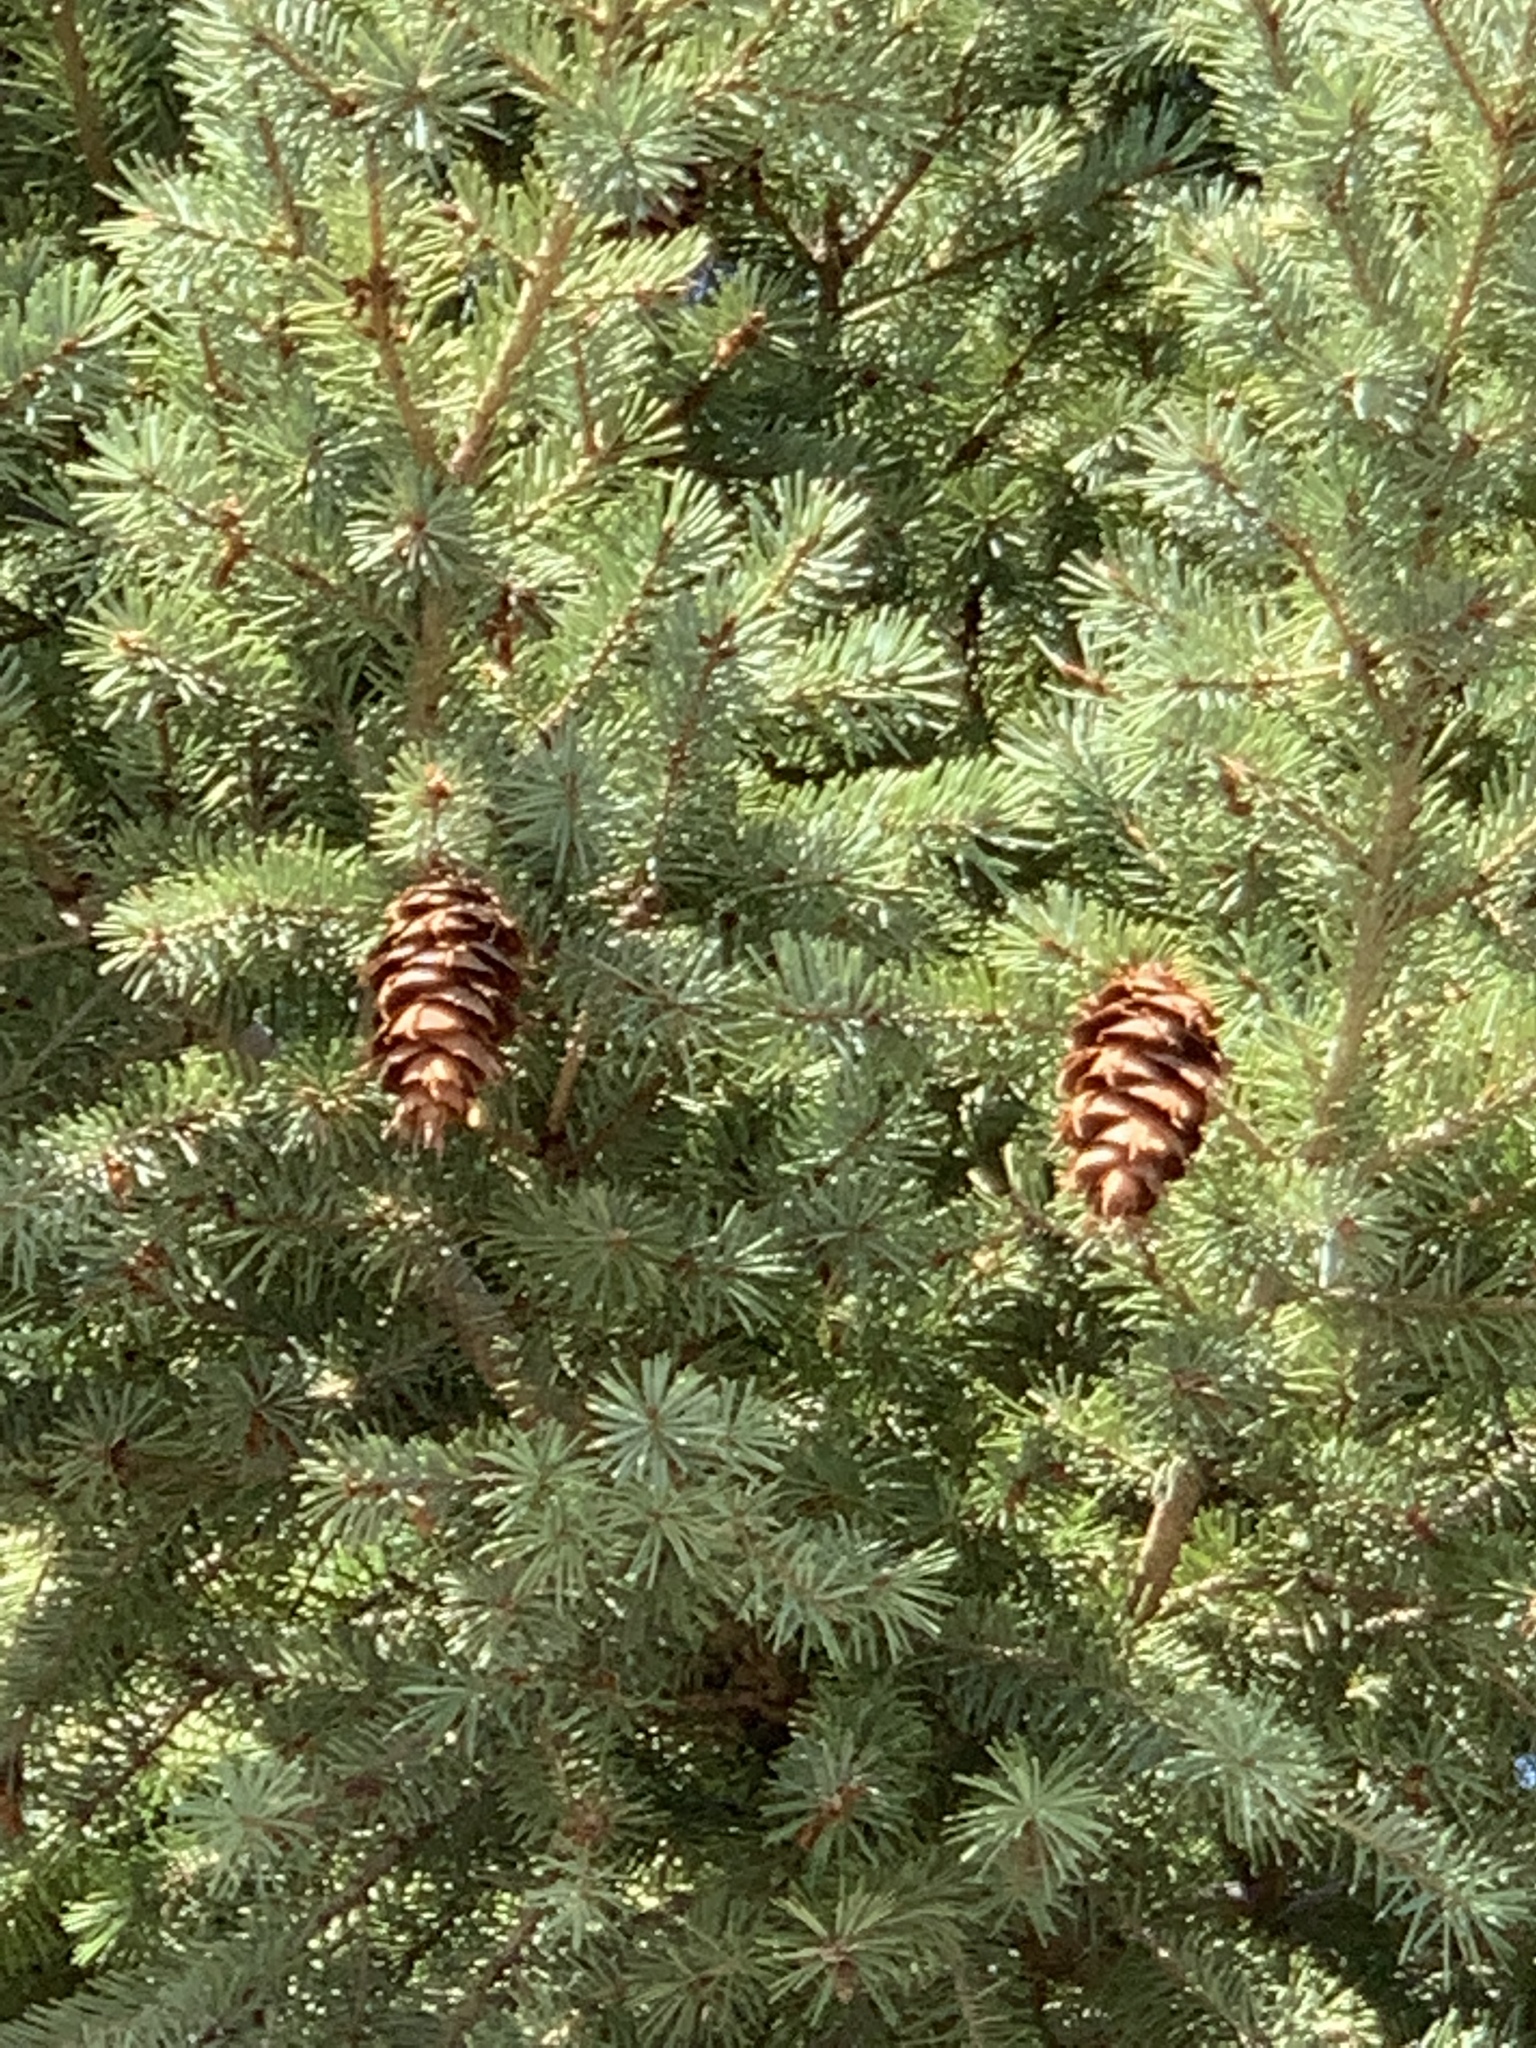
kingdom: Plantae
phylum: Tracheophyta
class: Pinopsida
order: Pinales
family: Pinaceae
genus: Pseudotsuga
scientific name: Pseudotsuga menziesii
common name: Douglas fir
